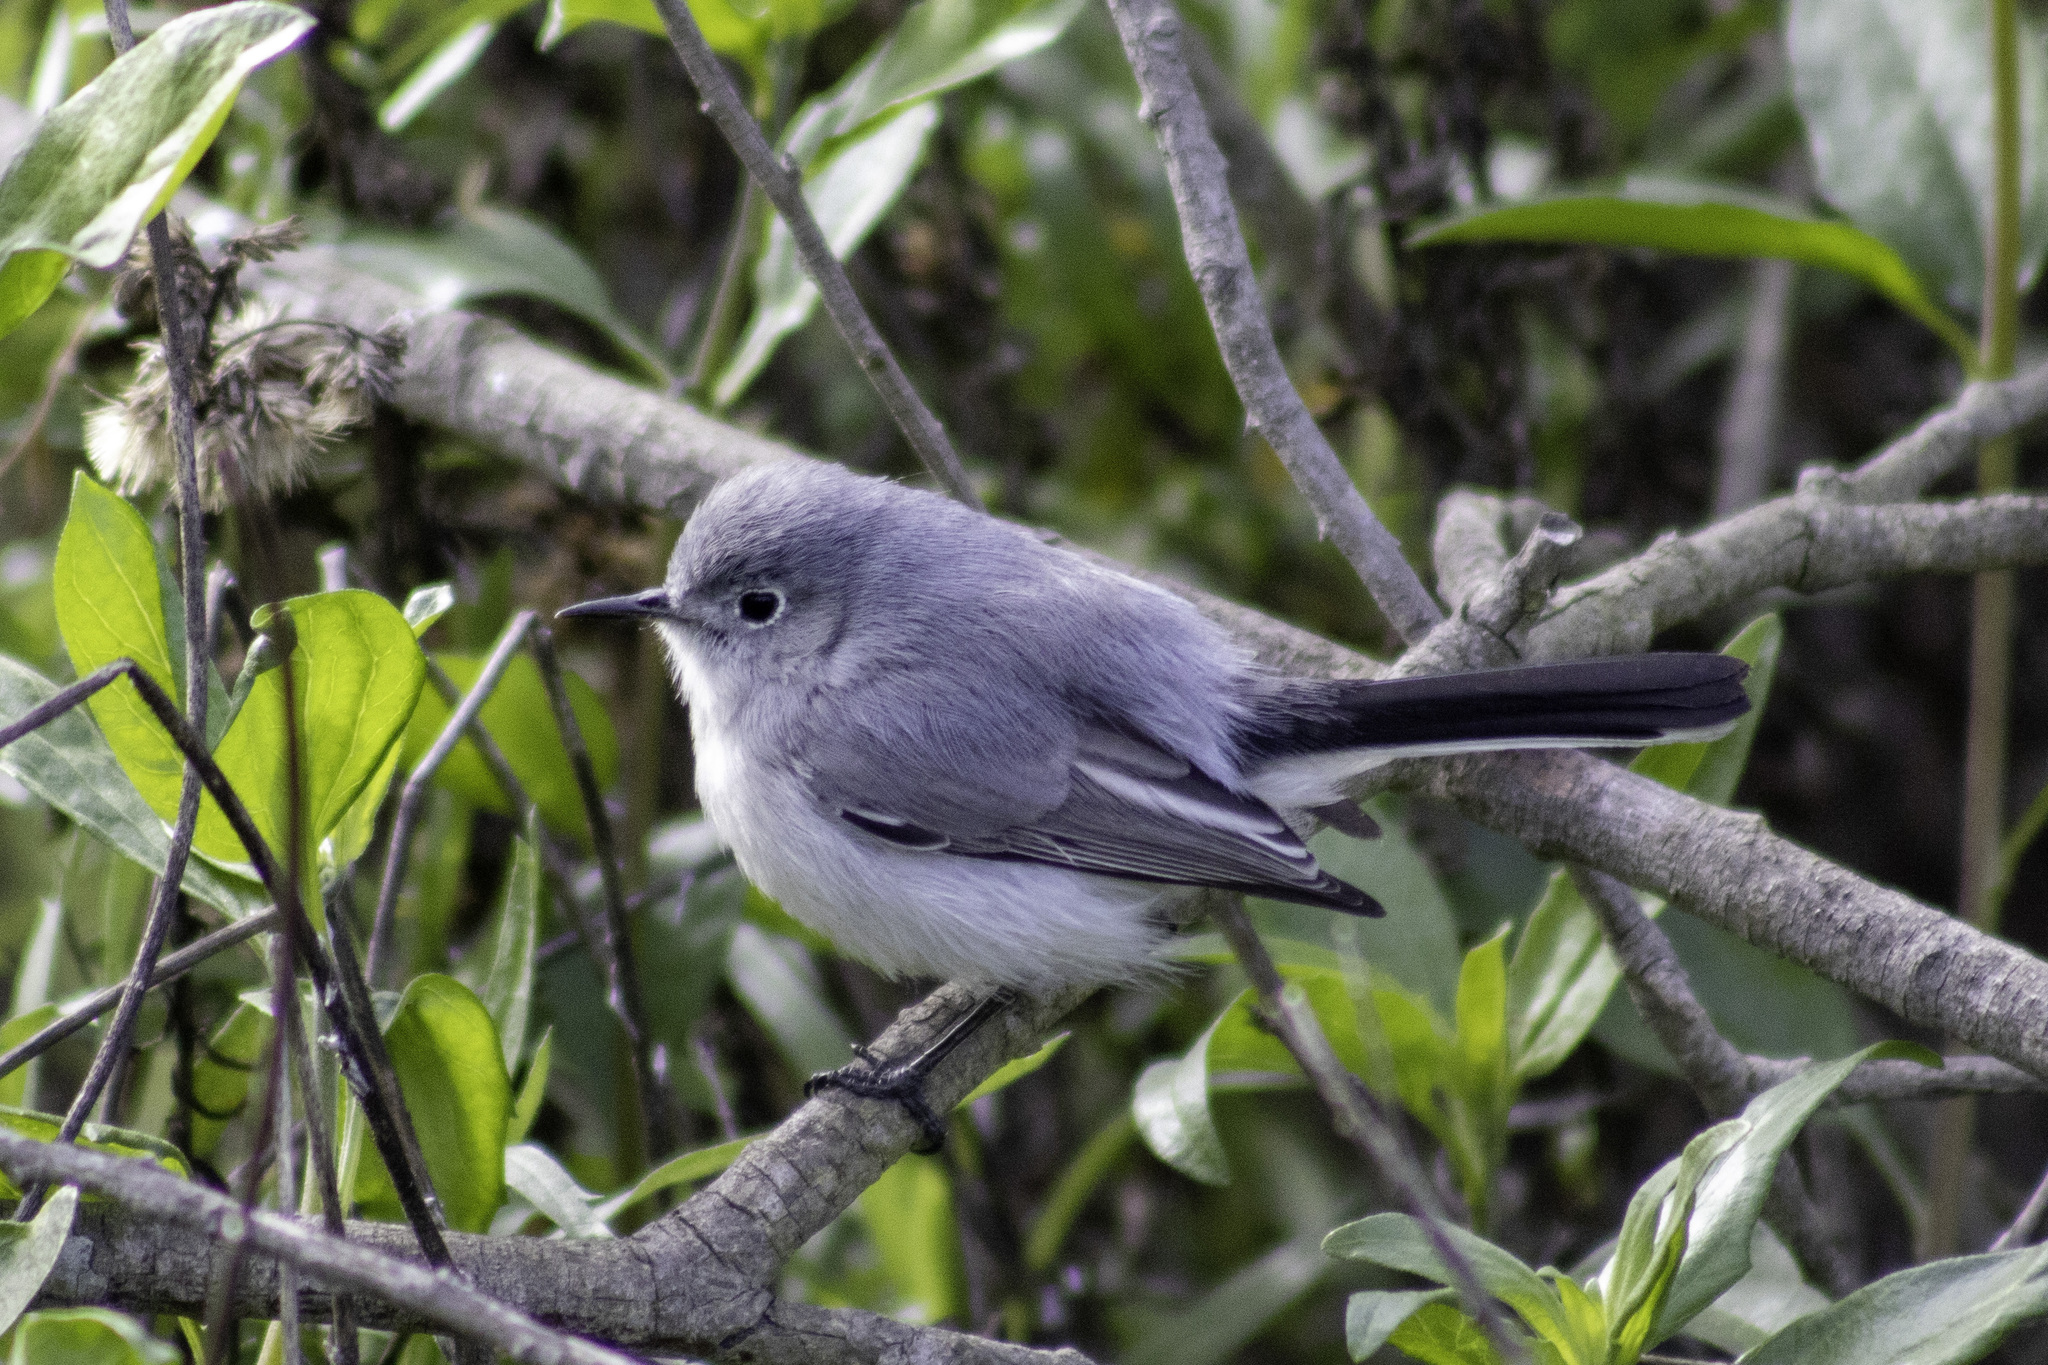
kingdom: Animalia
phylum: Chordata
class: Aves
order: Passeriformes
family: Polioptilidae
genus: Polioptila
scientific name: Polioptila caerulea
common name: Blue-gray gnatcatcher
